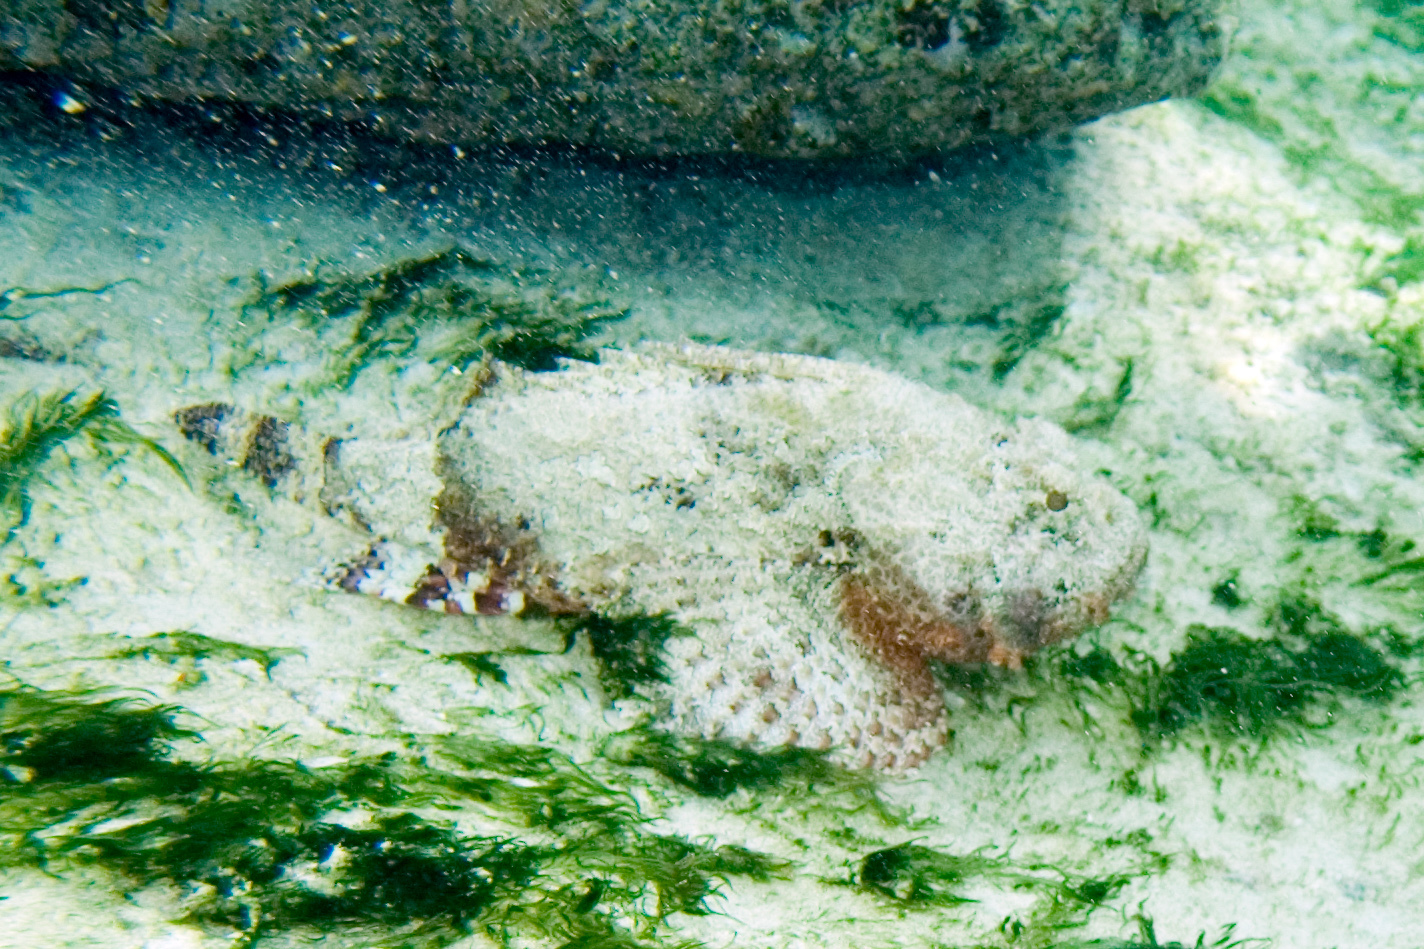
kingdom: Animalia
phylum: Chordata
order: Scorpaeniformes
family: Scorpaenidae
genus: Scorpaena
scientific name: Scorpaena plumieri
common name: Spotted scorpionfish
